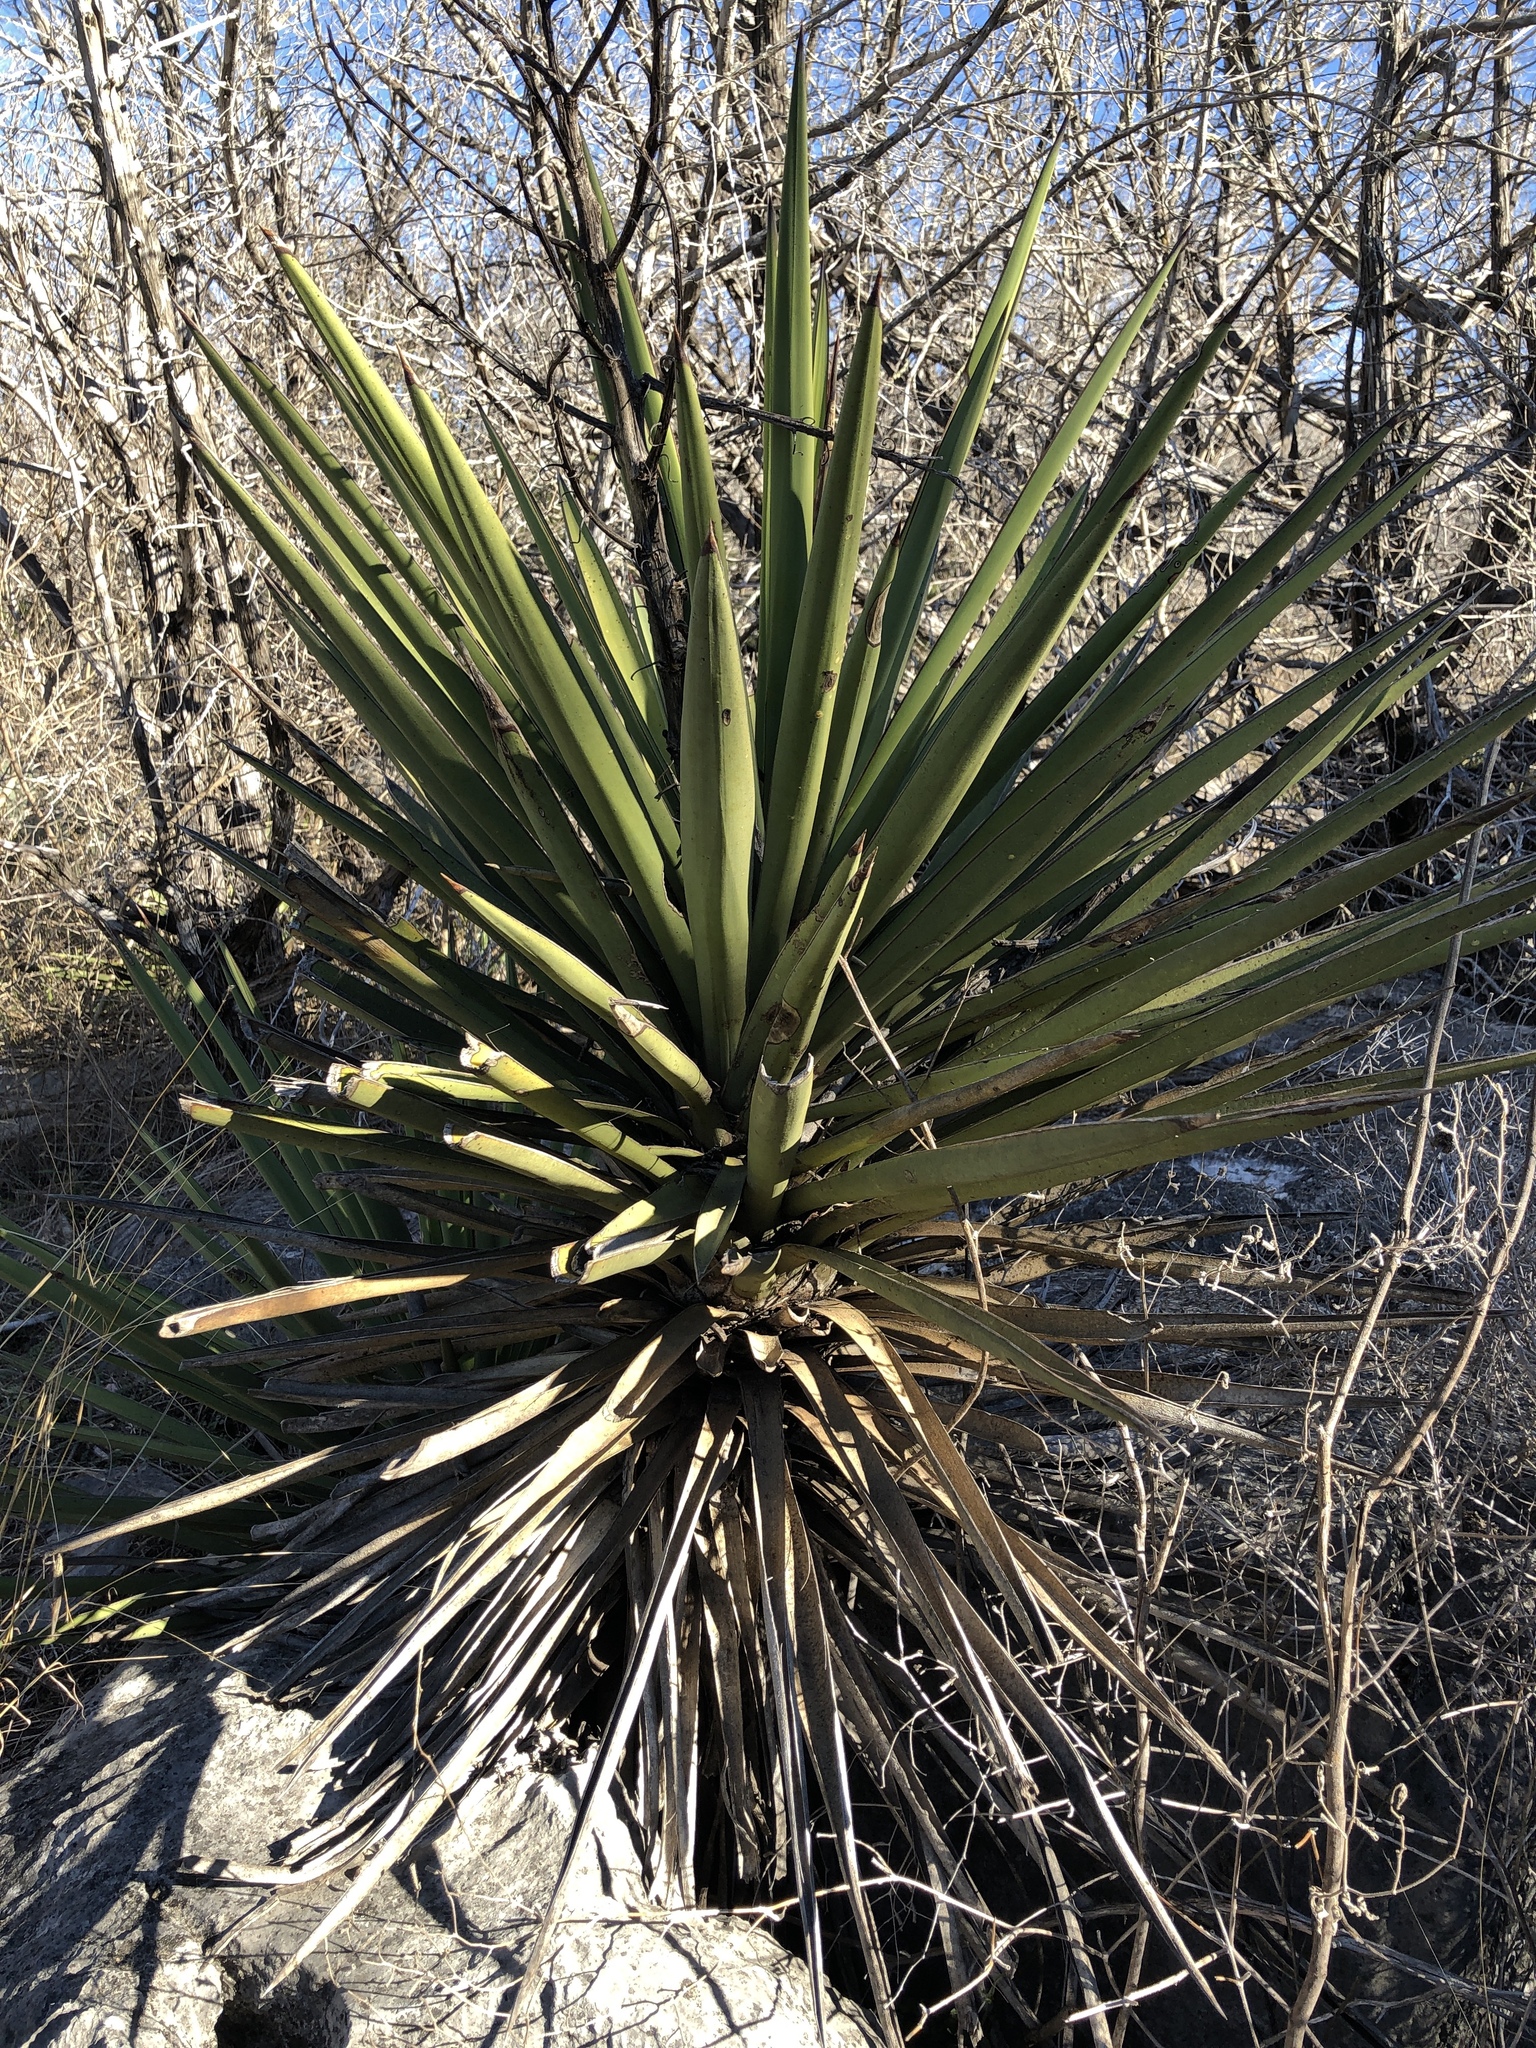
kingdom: Plantae
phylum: Tracheophyta
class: Liliopsida
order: Asparagales
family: Asparagaceae
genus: Yucca
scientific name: Yucca treculiana
